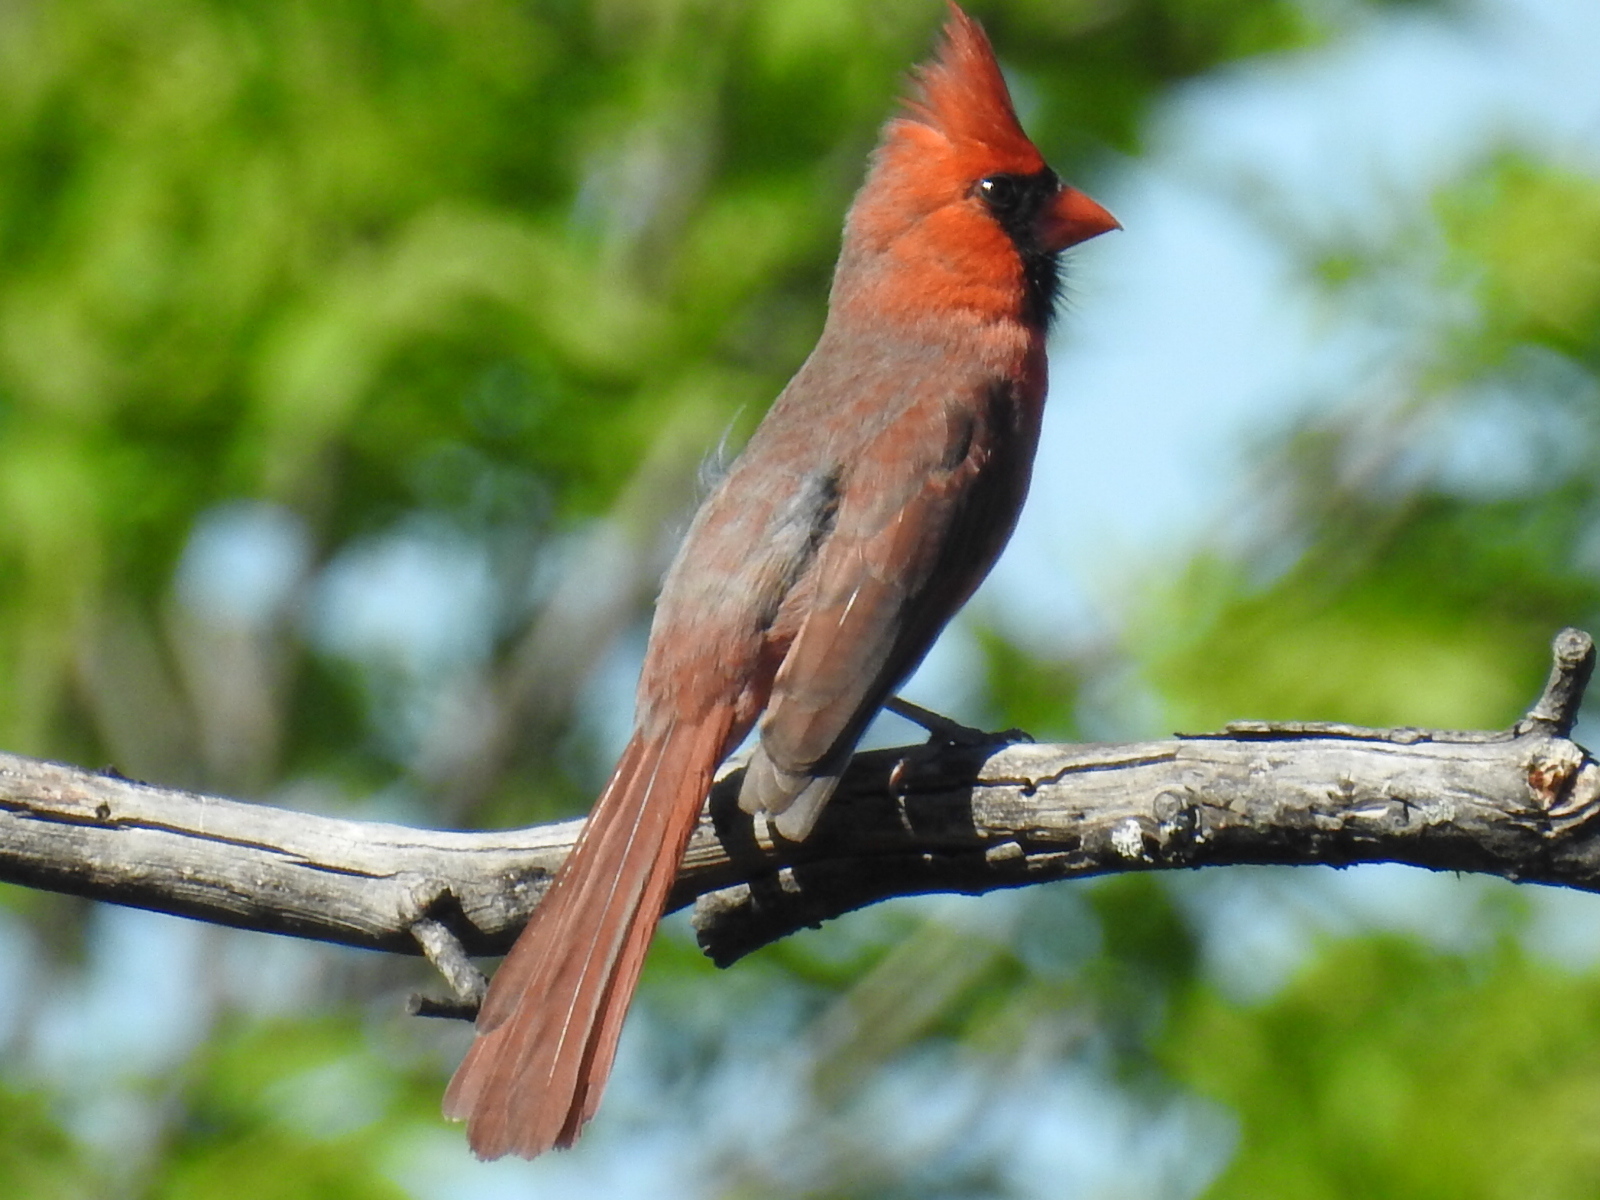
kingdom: Animalia
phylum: Chordata
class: Aves
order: Passeriformes
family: Cardinalidae
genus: Cardinalis
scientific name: Cardinalis cardinalis
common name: Northern cardinal
